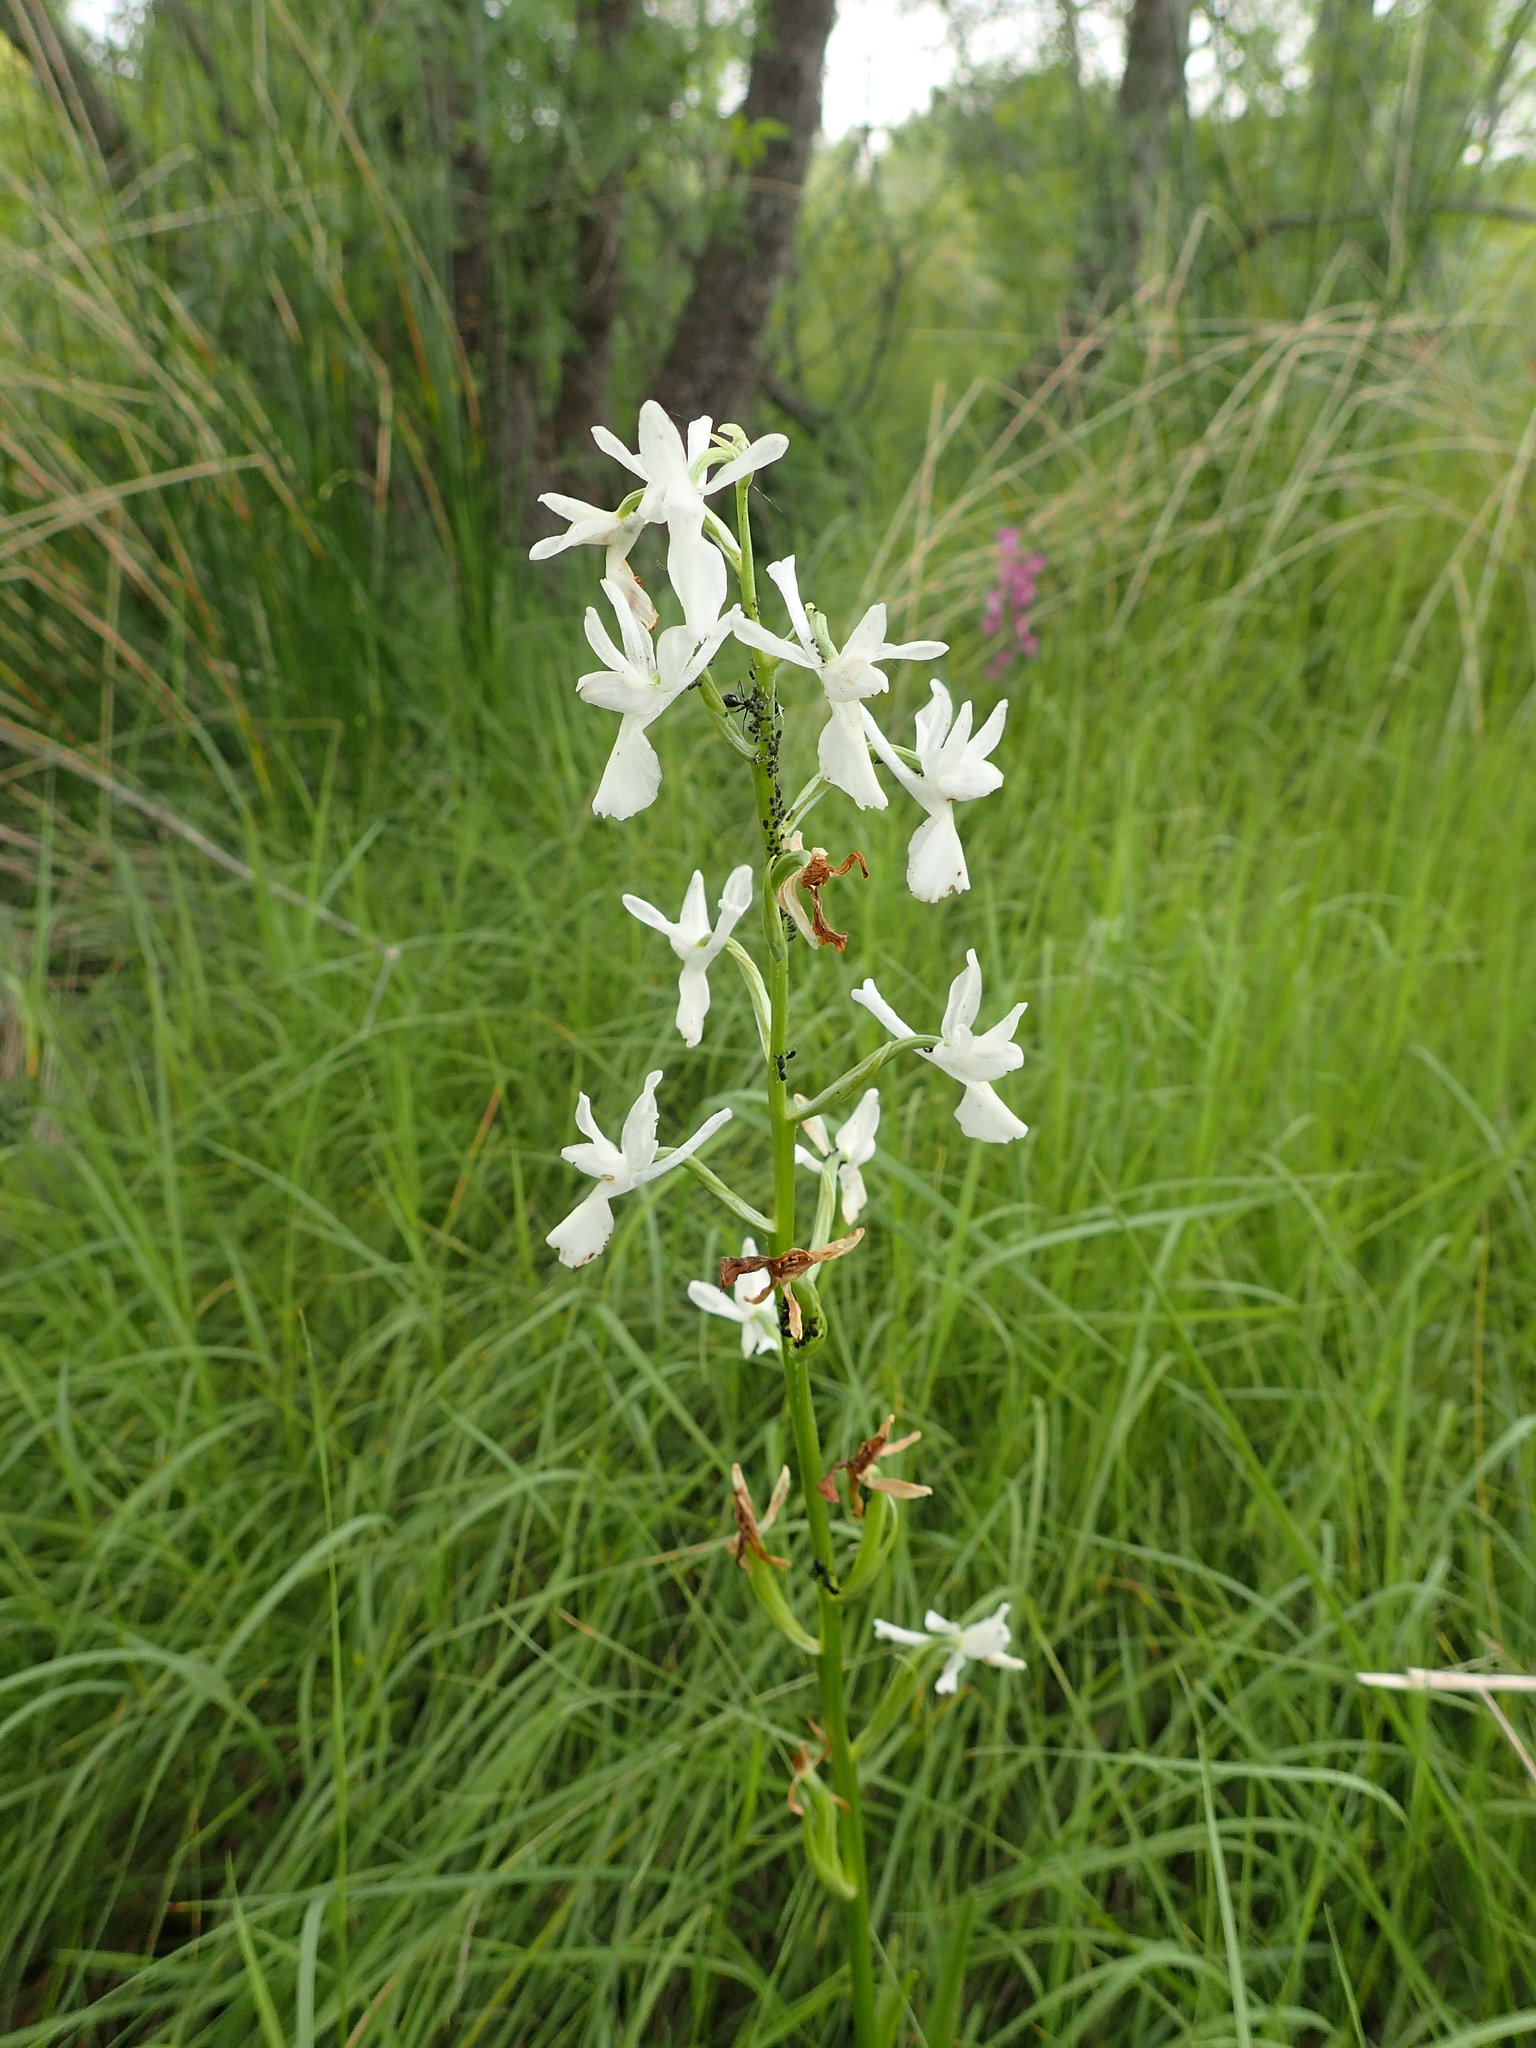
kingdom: Plantae
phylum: Tracheophyta
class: Liliopsida
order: Asparagales
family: Orchidaceae
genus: Anacamptis
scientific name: Anacamptis laxiflora
